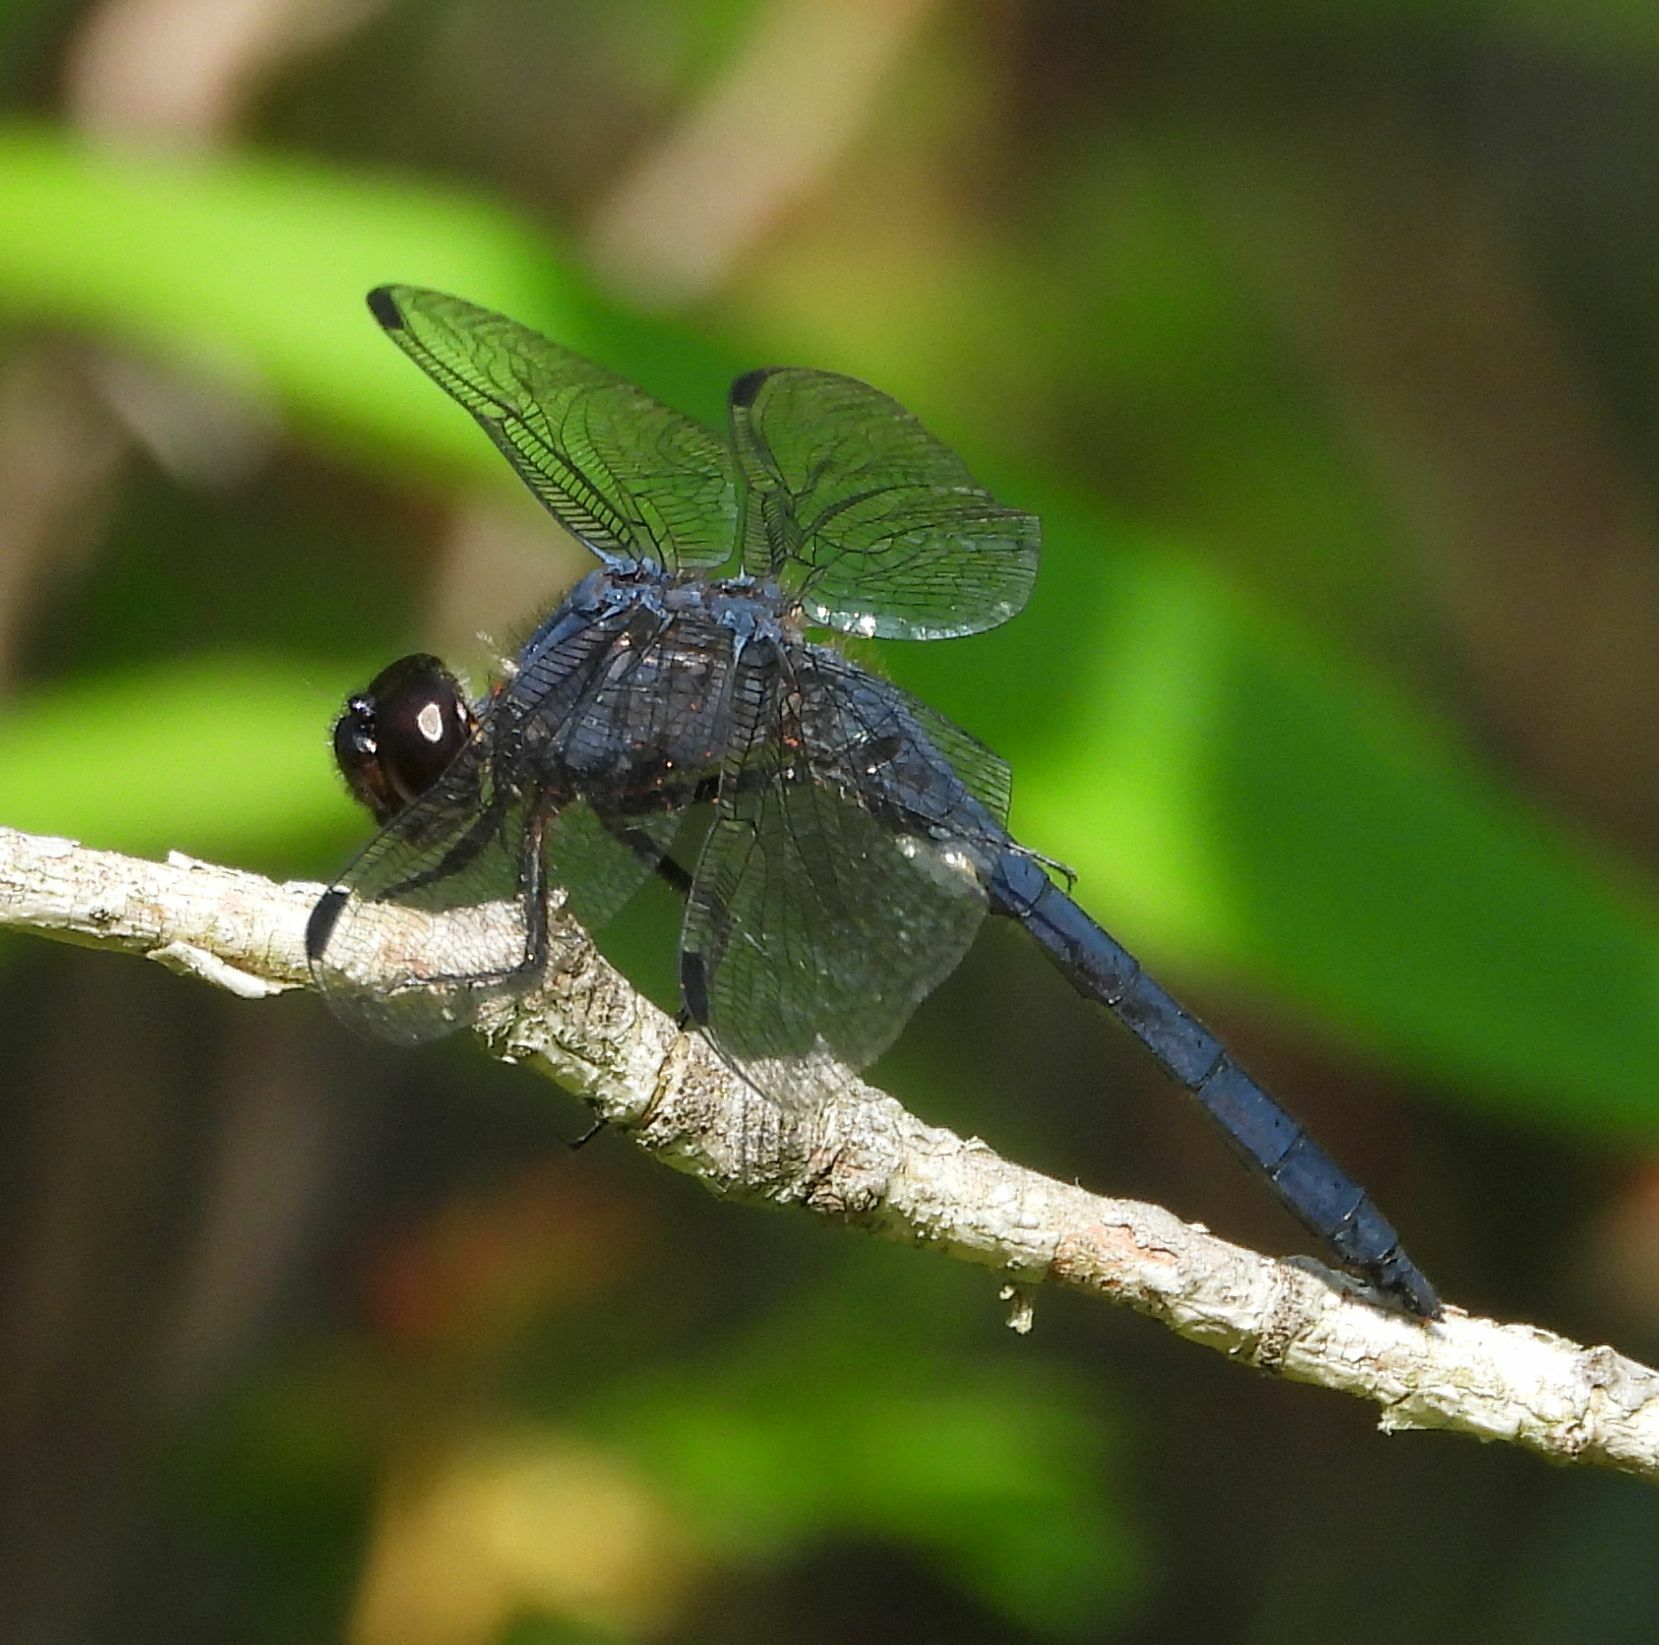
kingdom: Animalia
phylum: Arthropoda
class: Insecta
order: Odonata
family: Libellulidae
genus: Libellula
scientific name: Libellula incesta
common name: Slaty skimmer
